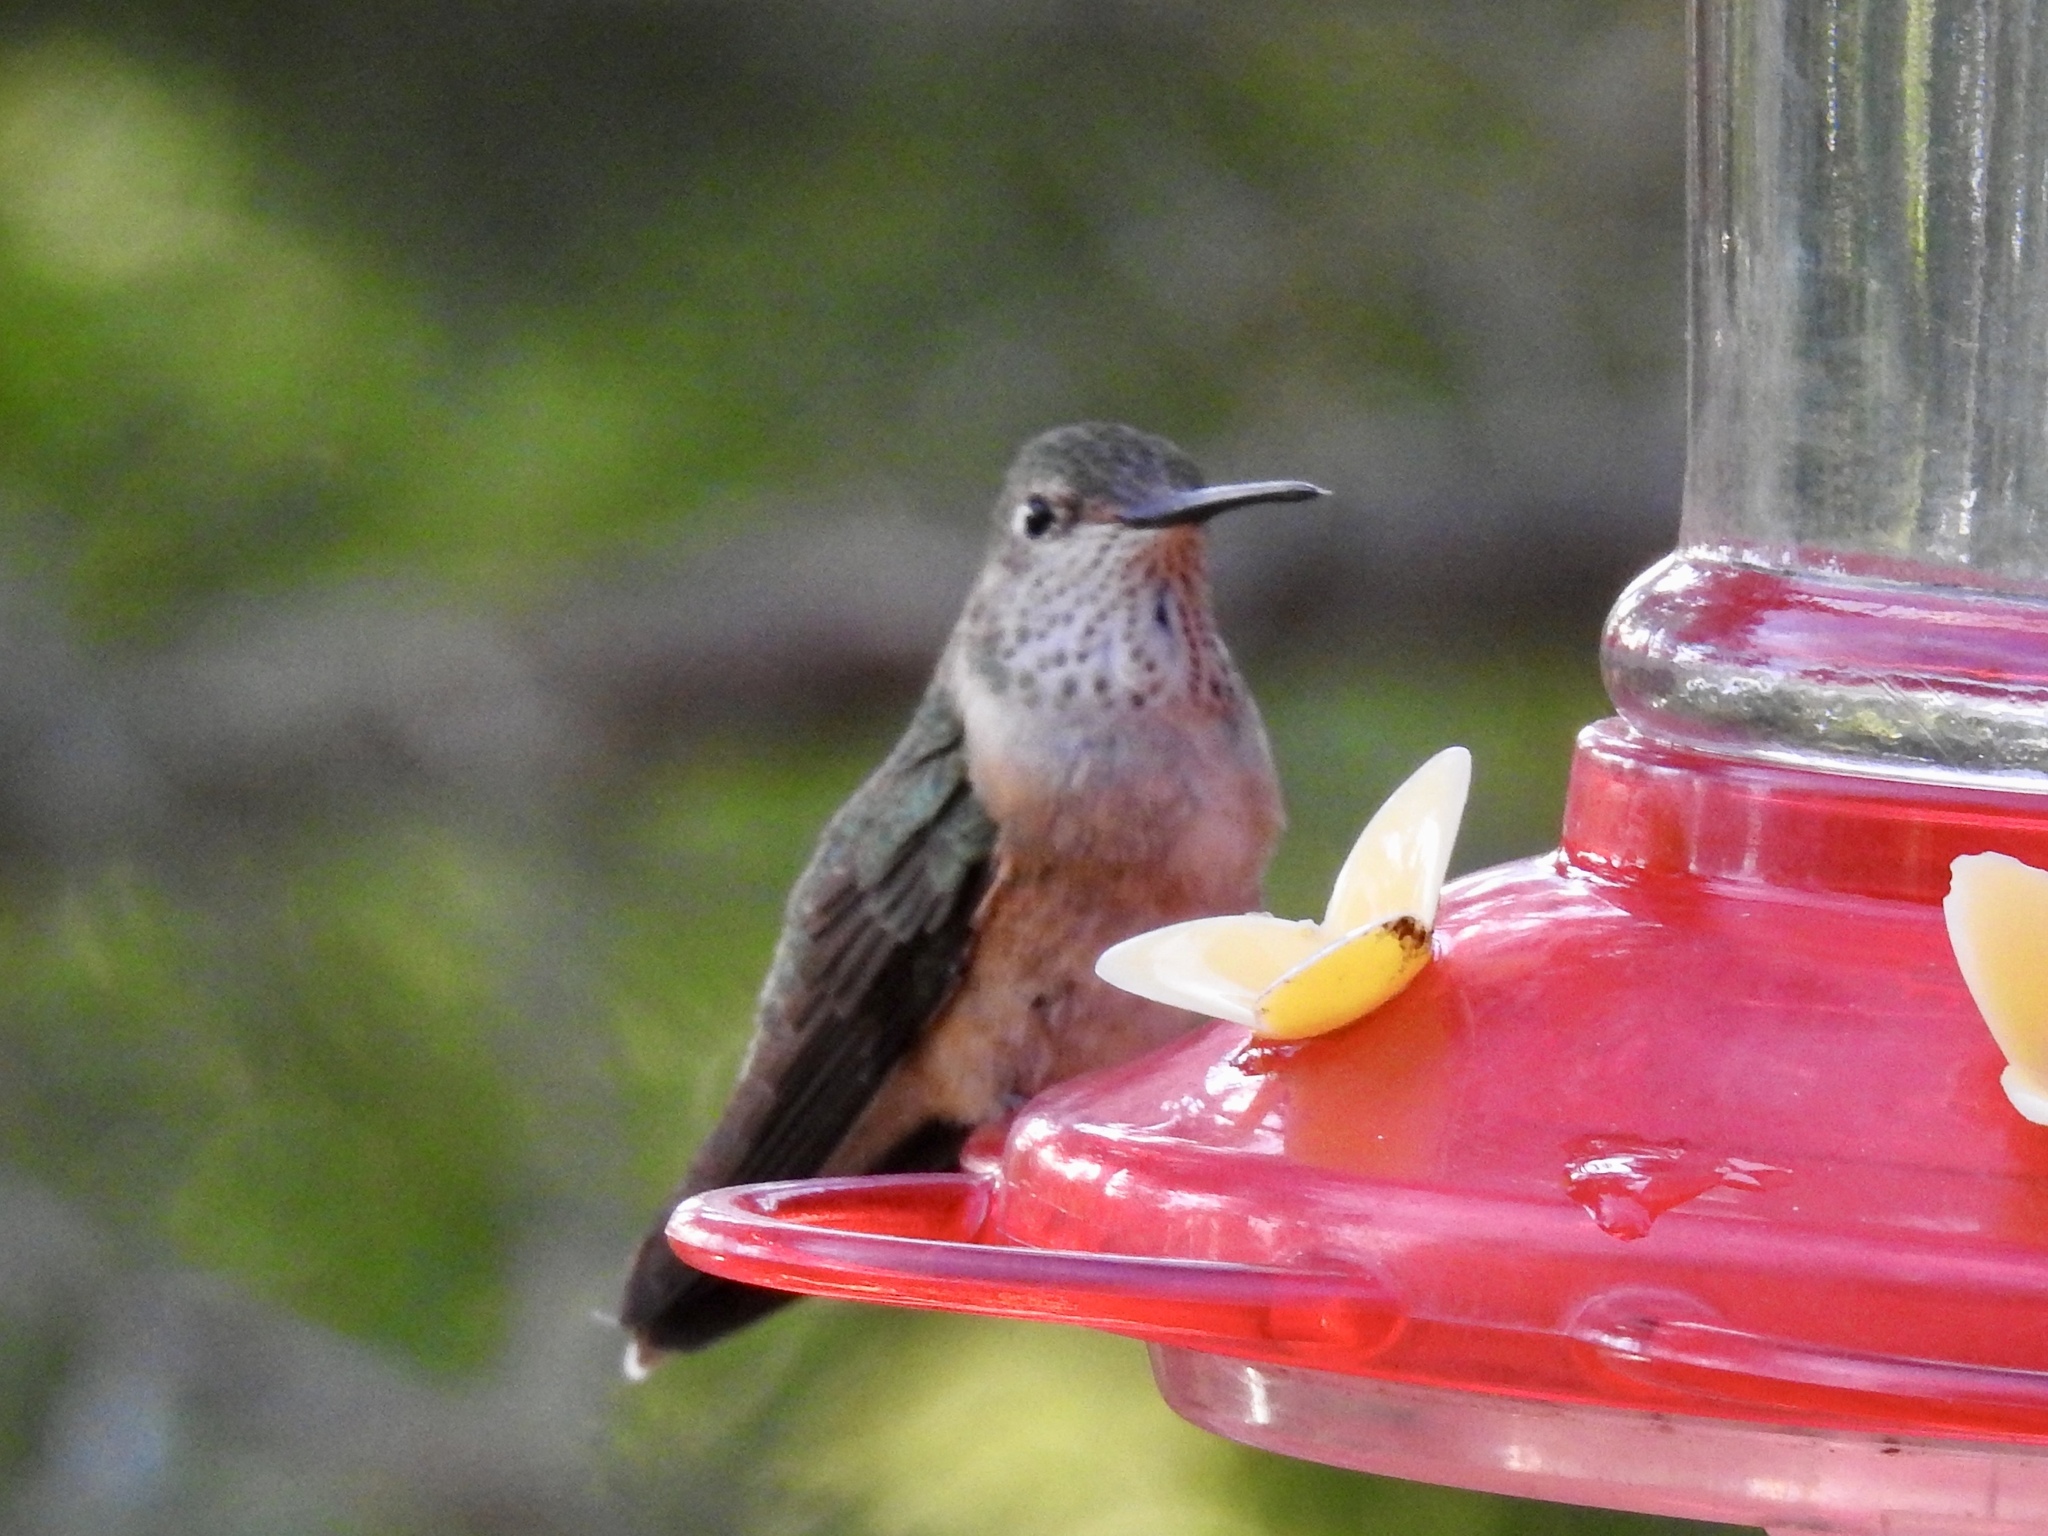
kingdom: Animalia
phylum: Chordata
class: Aves
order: Apodiformes
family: Trochilidae
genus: Selasphorus
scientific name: Selasphorus platycercus
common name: Broad-tailed hummingbird
